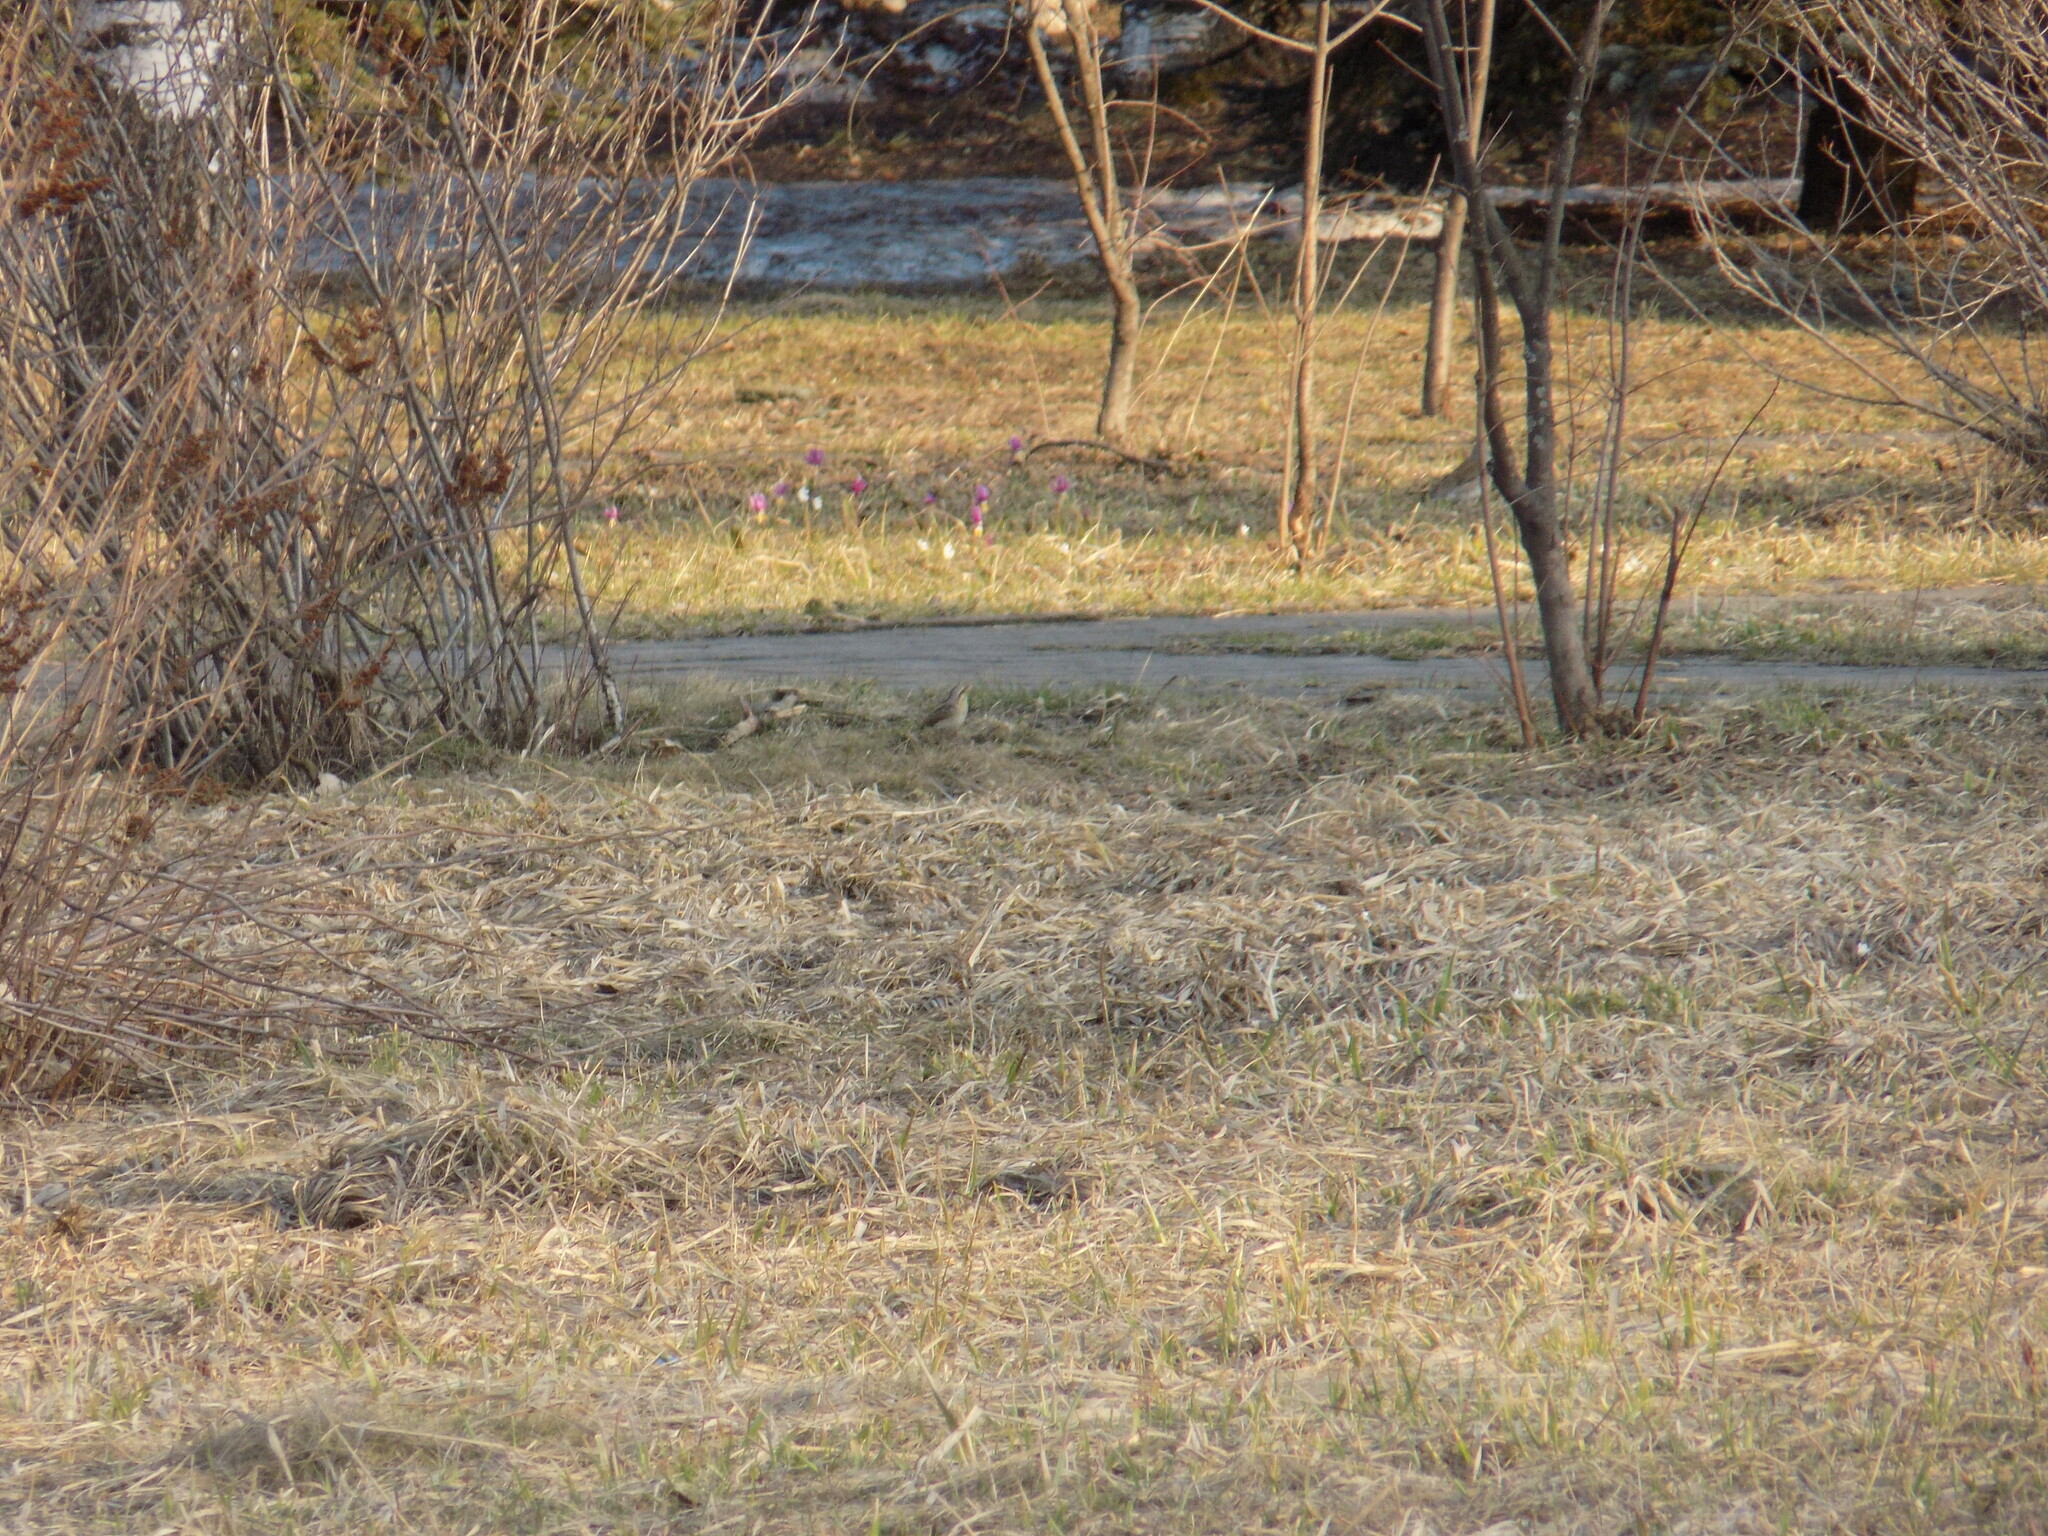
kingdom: Animalia
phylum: Chordata
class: Aves
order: Piciformes
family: Picidae
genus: Jynx
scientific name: Jynx torquilla
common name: Eurasian wryneck
